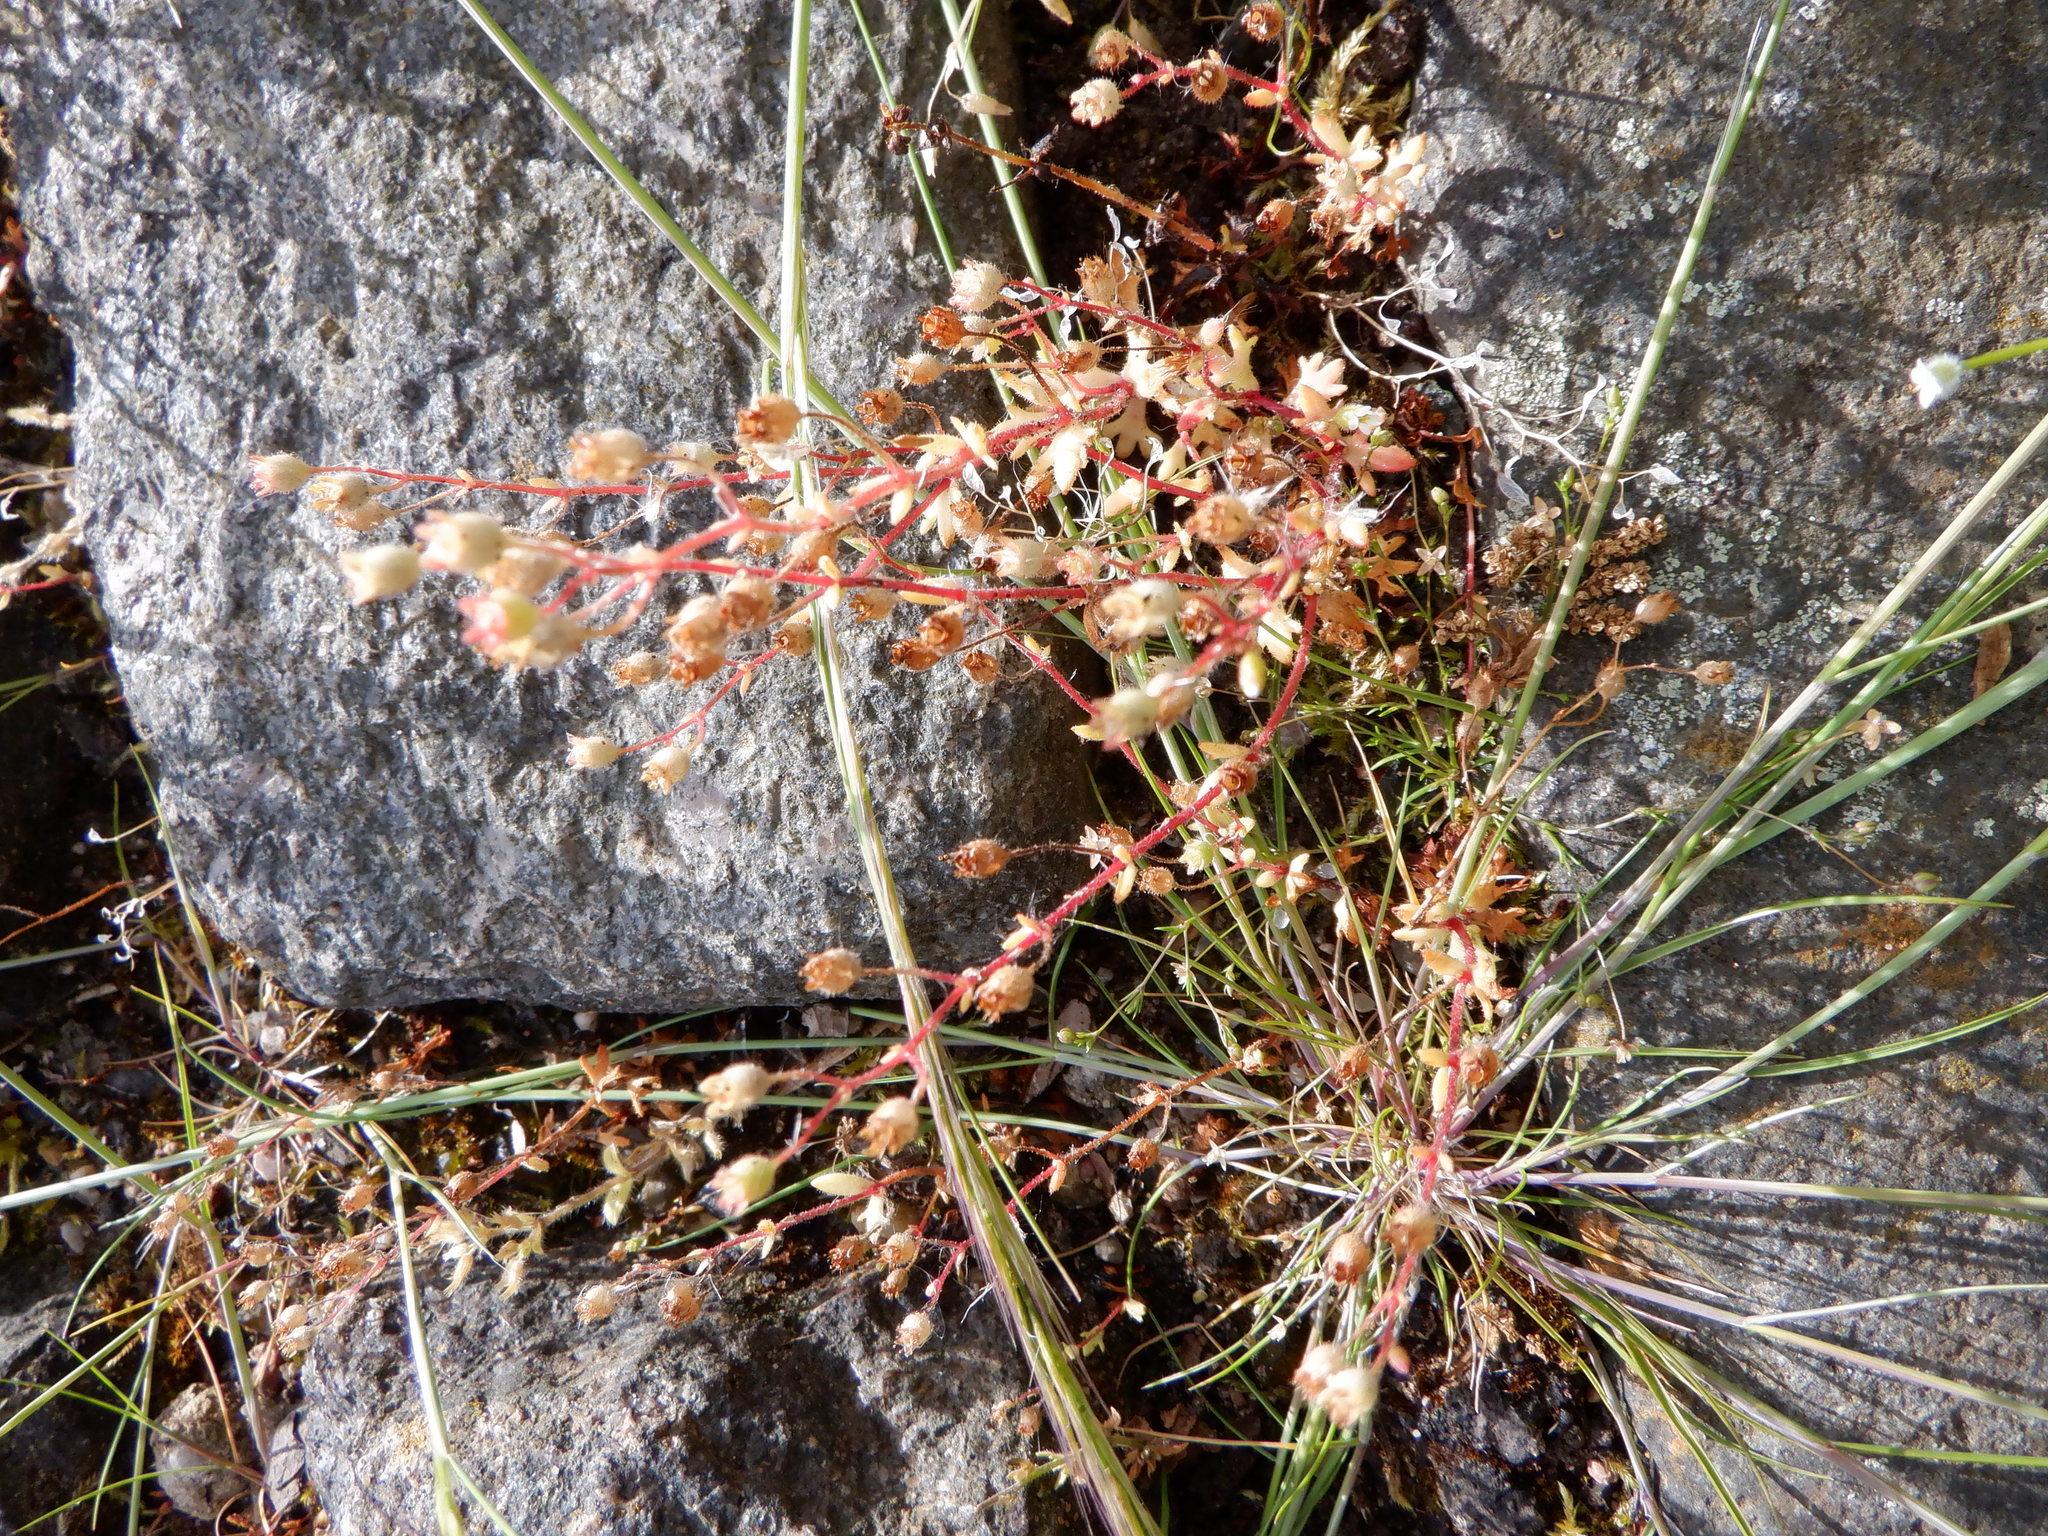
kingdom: Plantae
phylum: Tracheophyta
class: Magnoliopsida
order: Saxifragales
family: Saxifragaceae
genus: Saxifraga
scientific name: Saxifraga tridactylites
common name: Rue-leaved saxifrage
